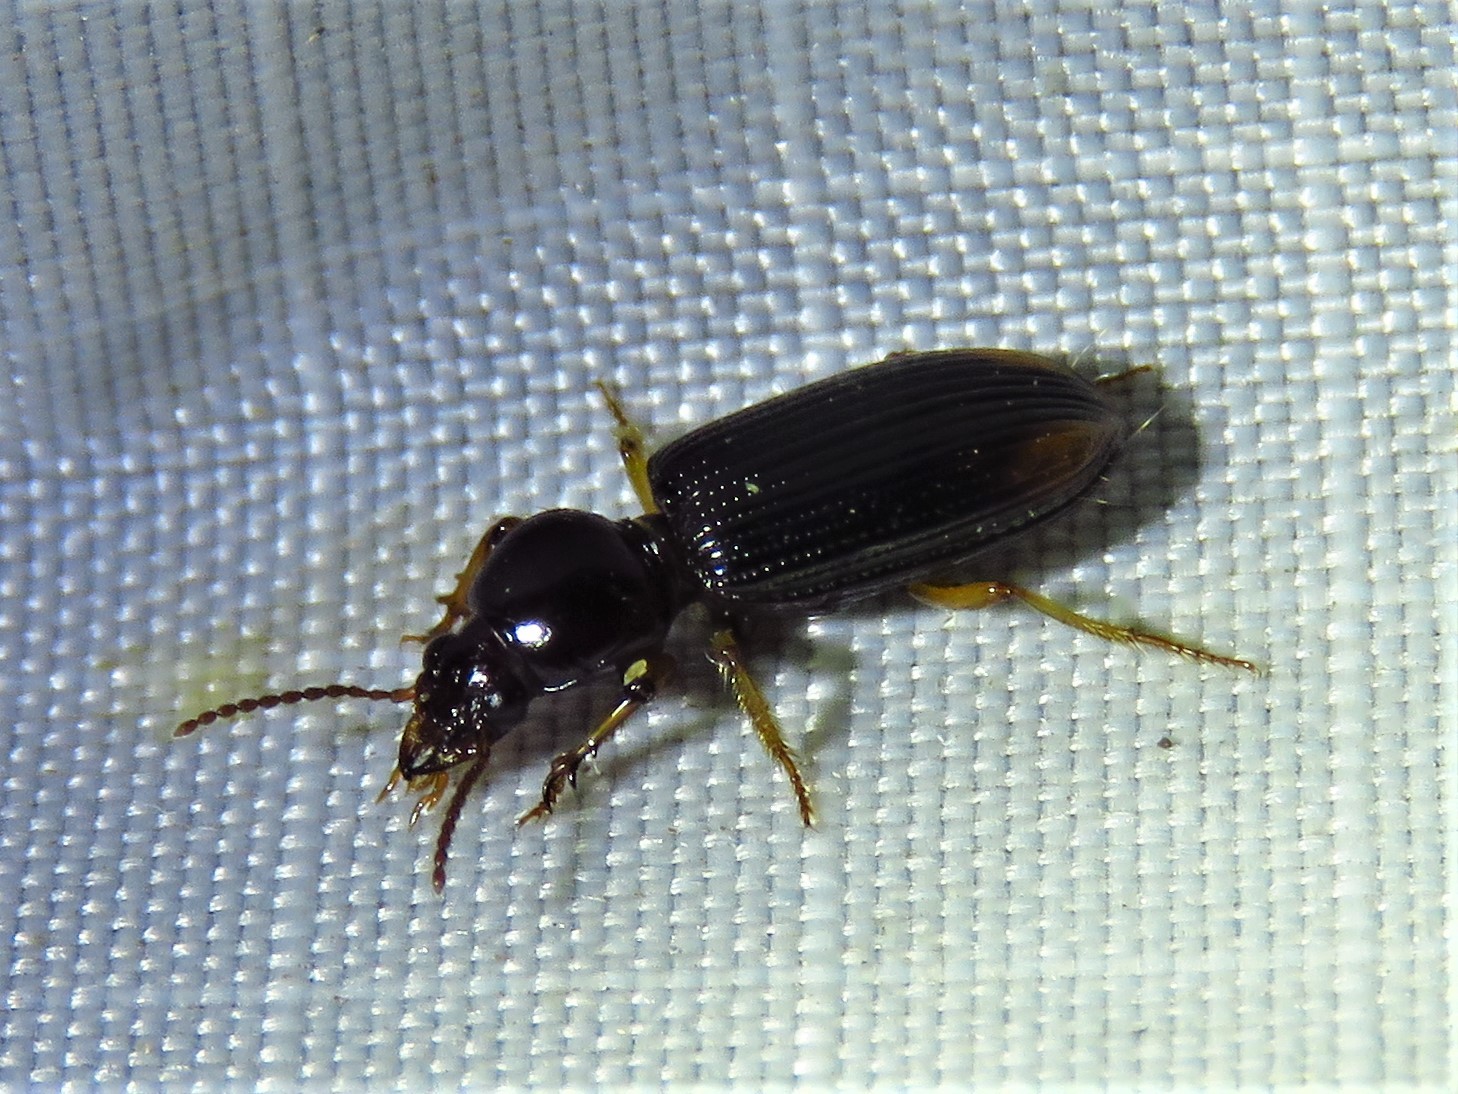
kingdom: Animalia
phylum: Arthropoda
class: Insecta
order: Coleoptera
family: Carabidae
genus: Aspidoglossa
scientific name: Aspidoglossa subangulata
